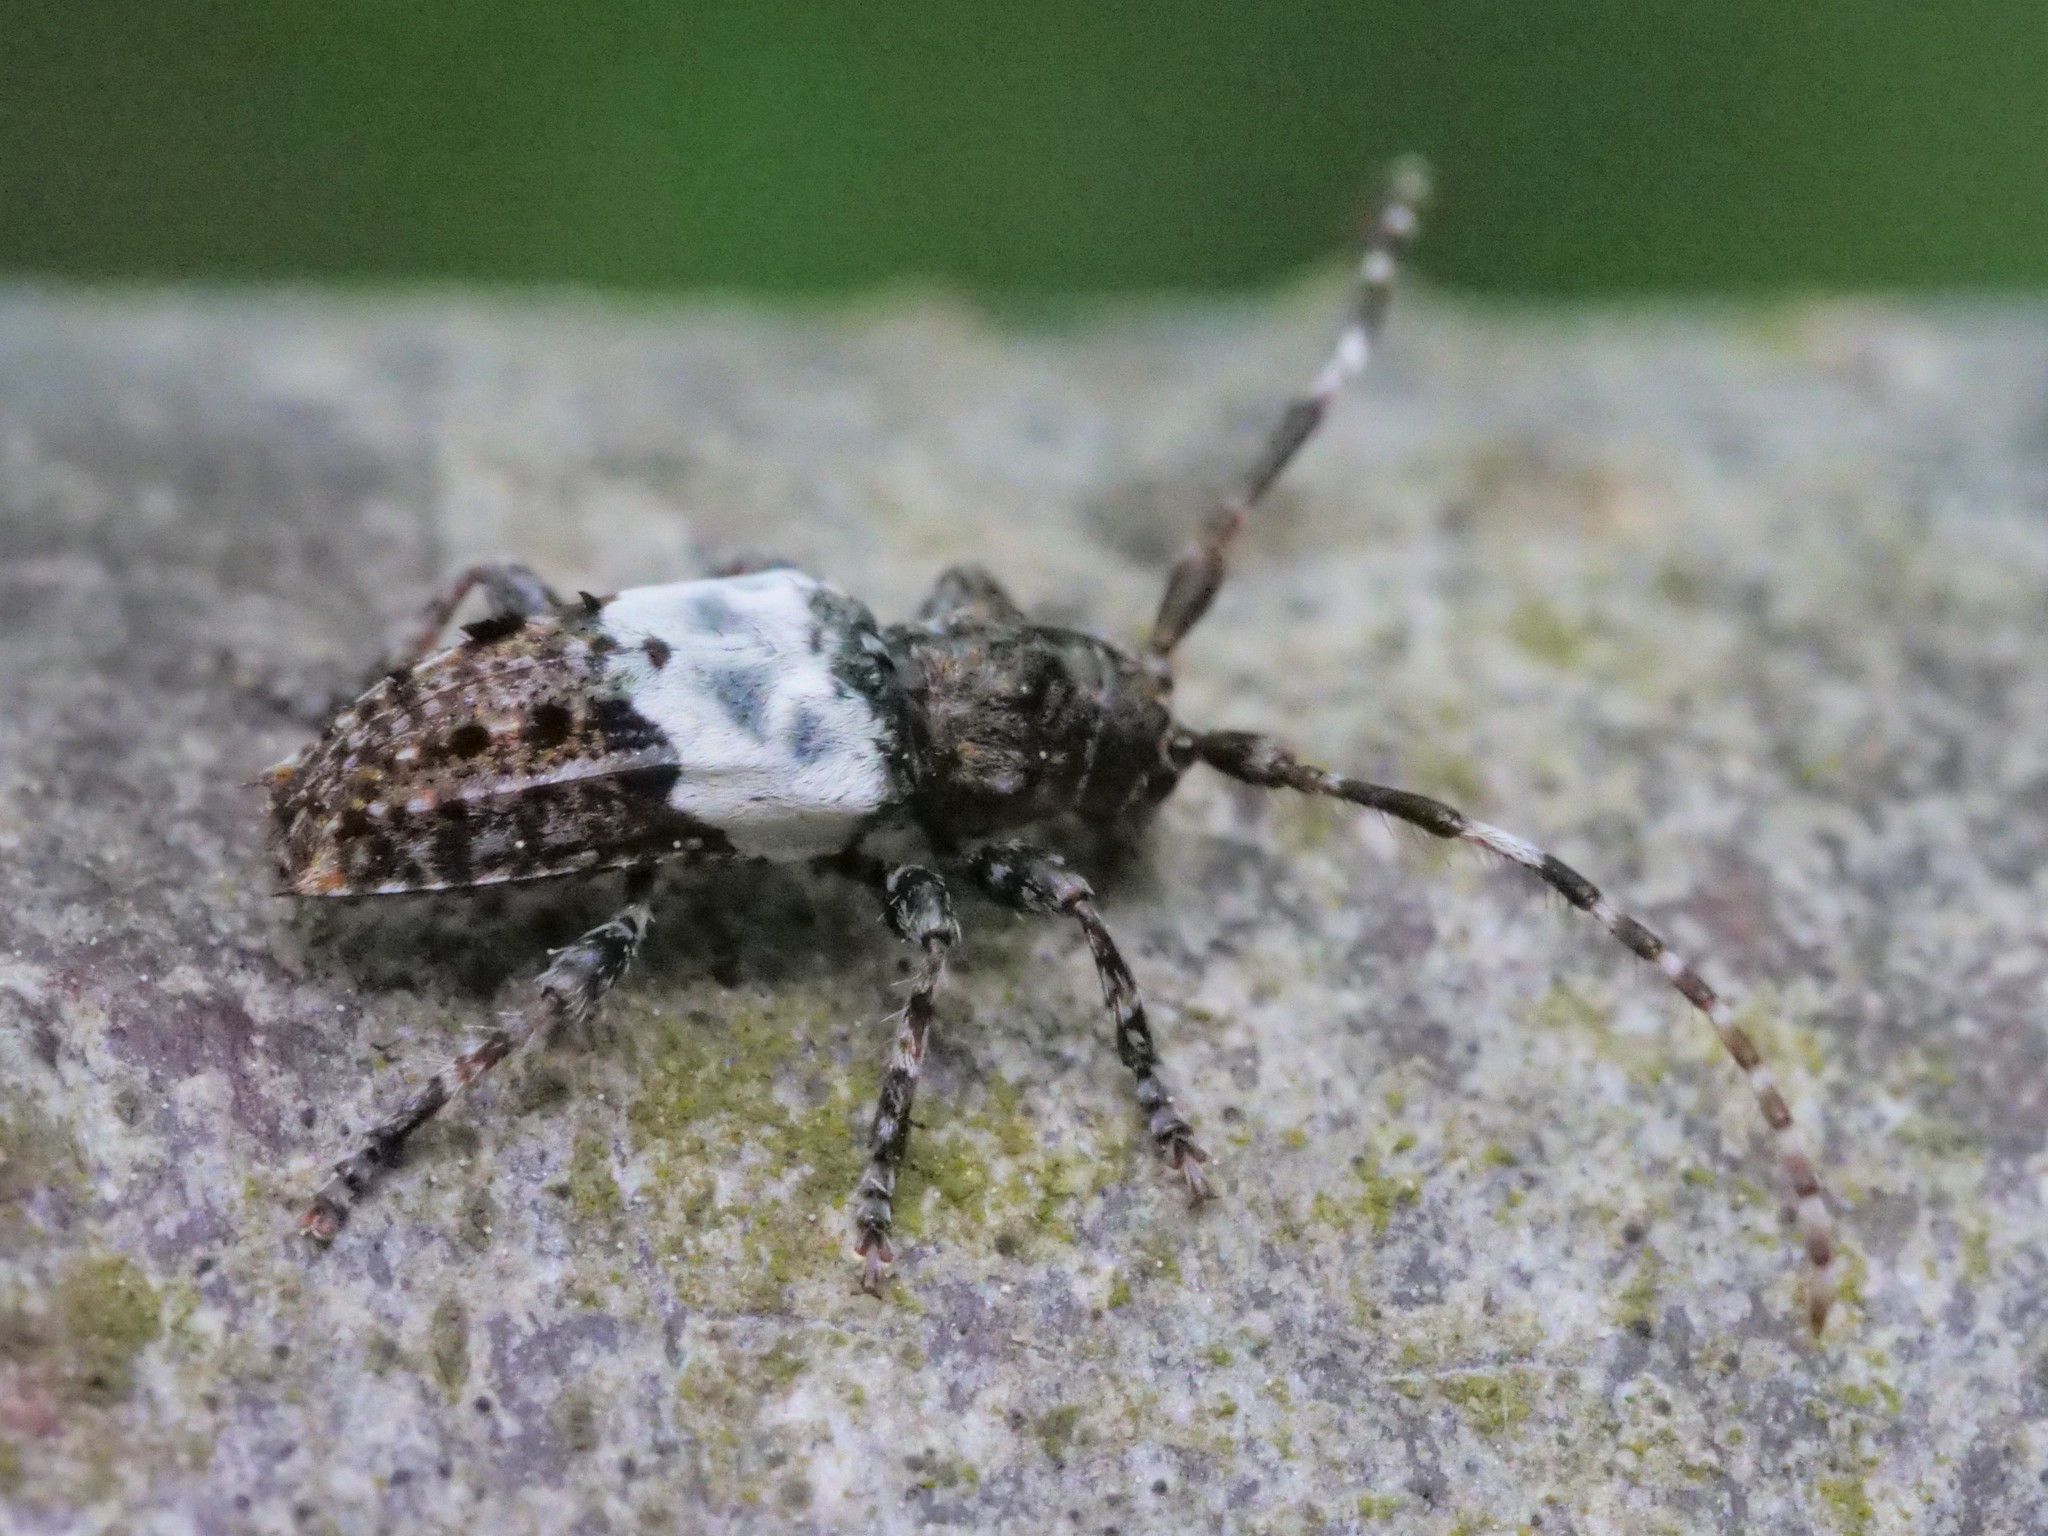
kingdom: Animalia
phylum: Arthropoda
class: Insecta
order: Coleoptera
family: Cerambycidae
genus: Pogonocherus
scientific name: Pogonocherus hispidulus
